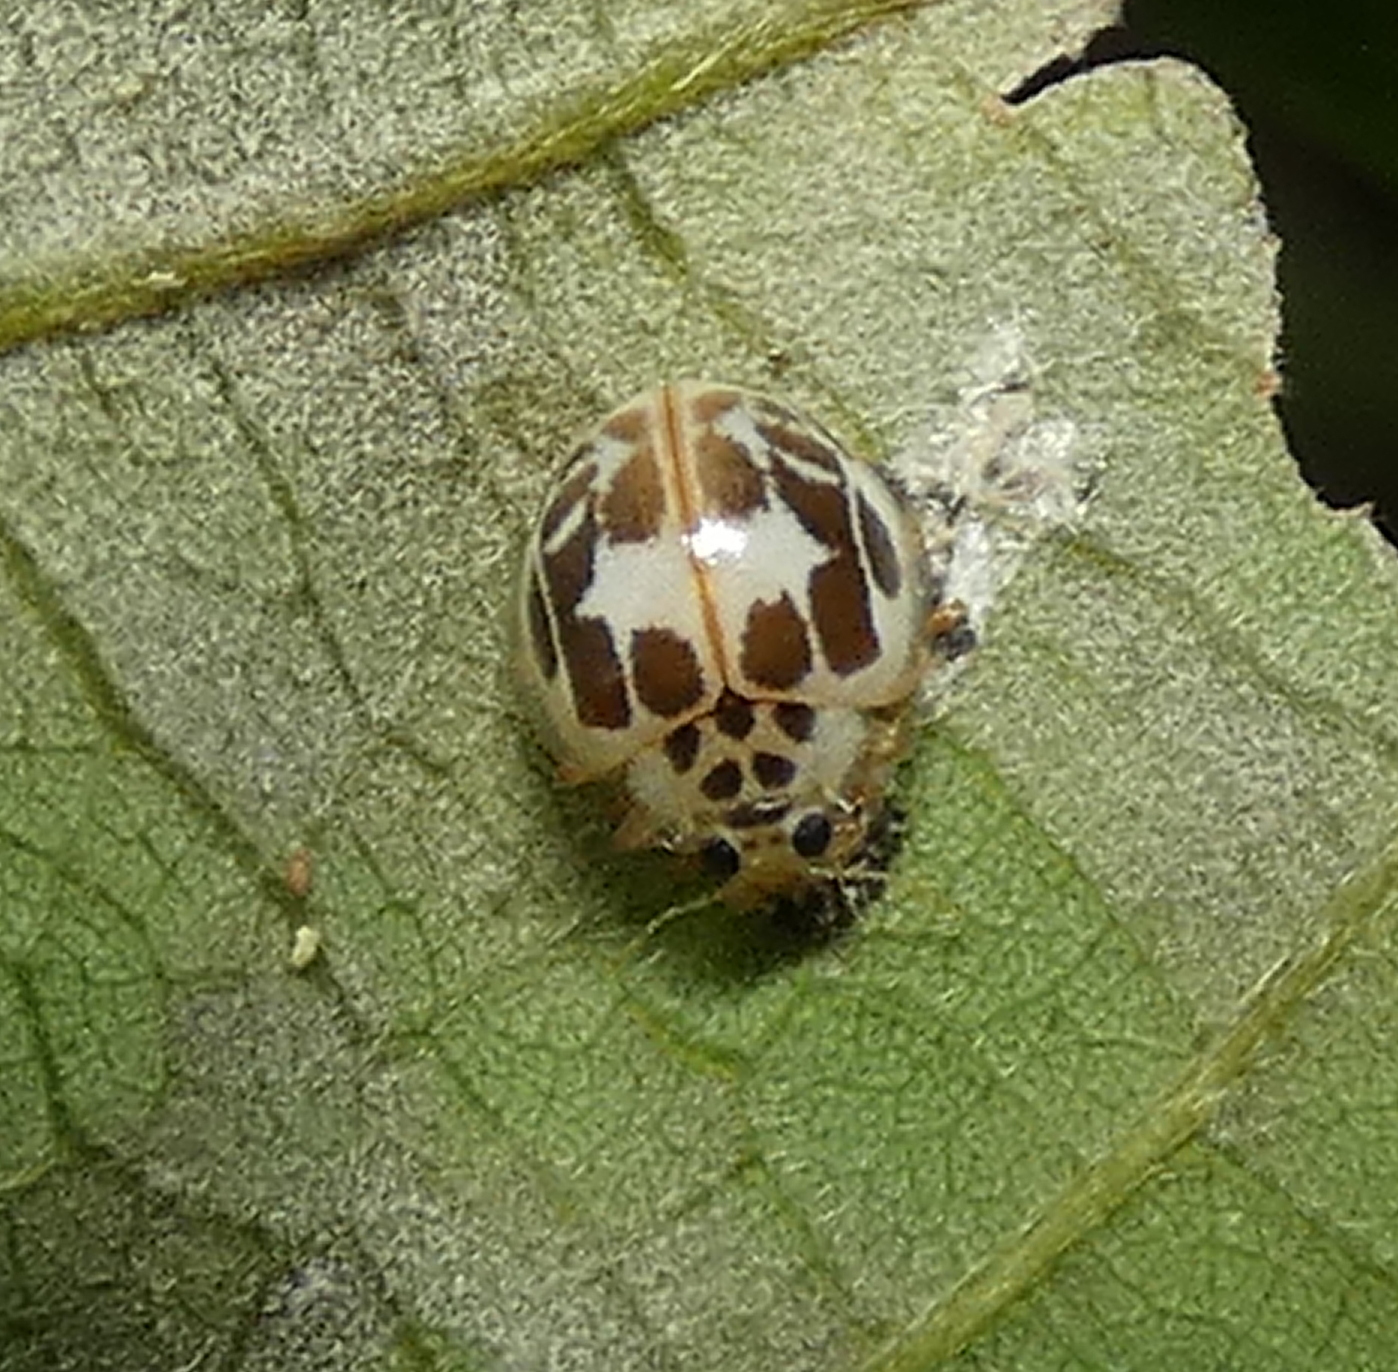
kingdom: Animalia
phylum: Arthropoda
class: Insecta
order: Coleoptera
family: Coccinellidae
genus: Psyllobora
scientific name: Psyllobora confluens
